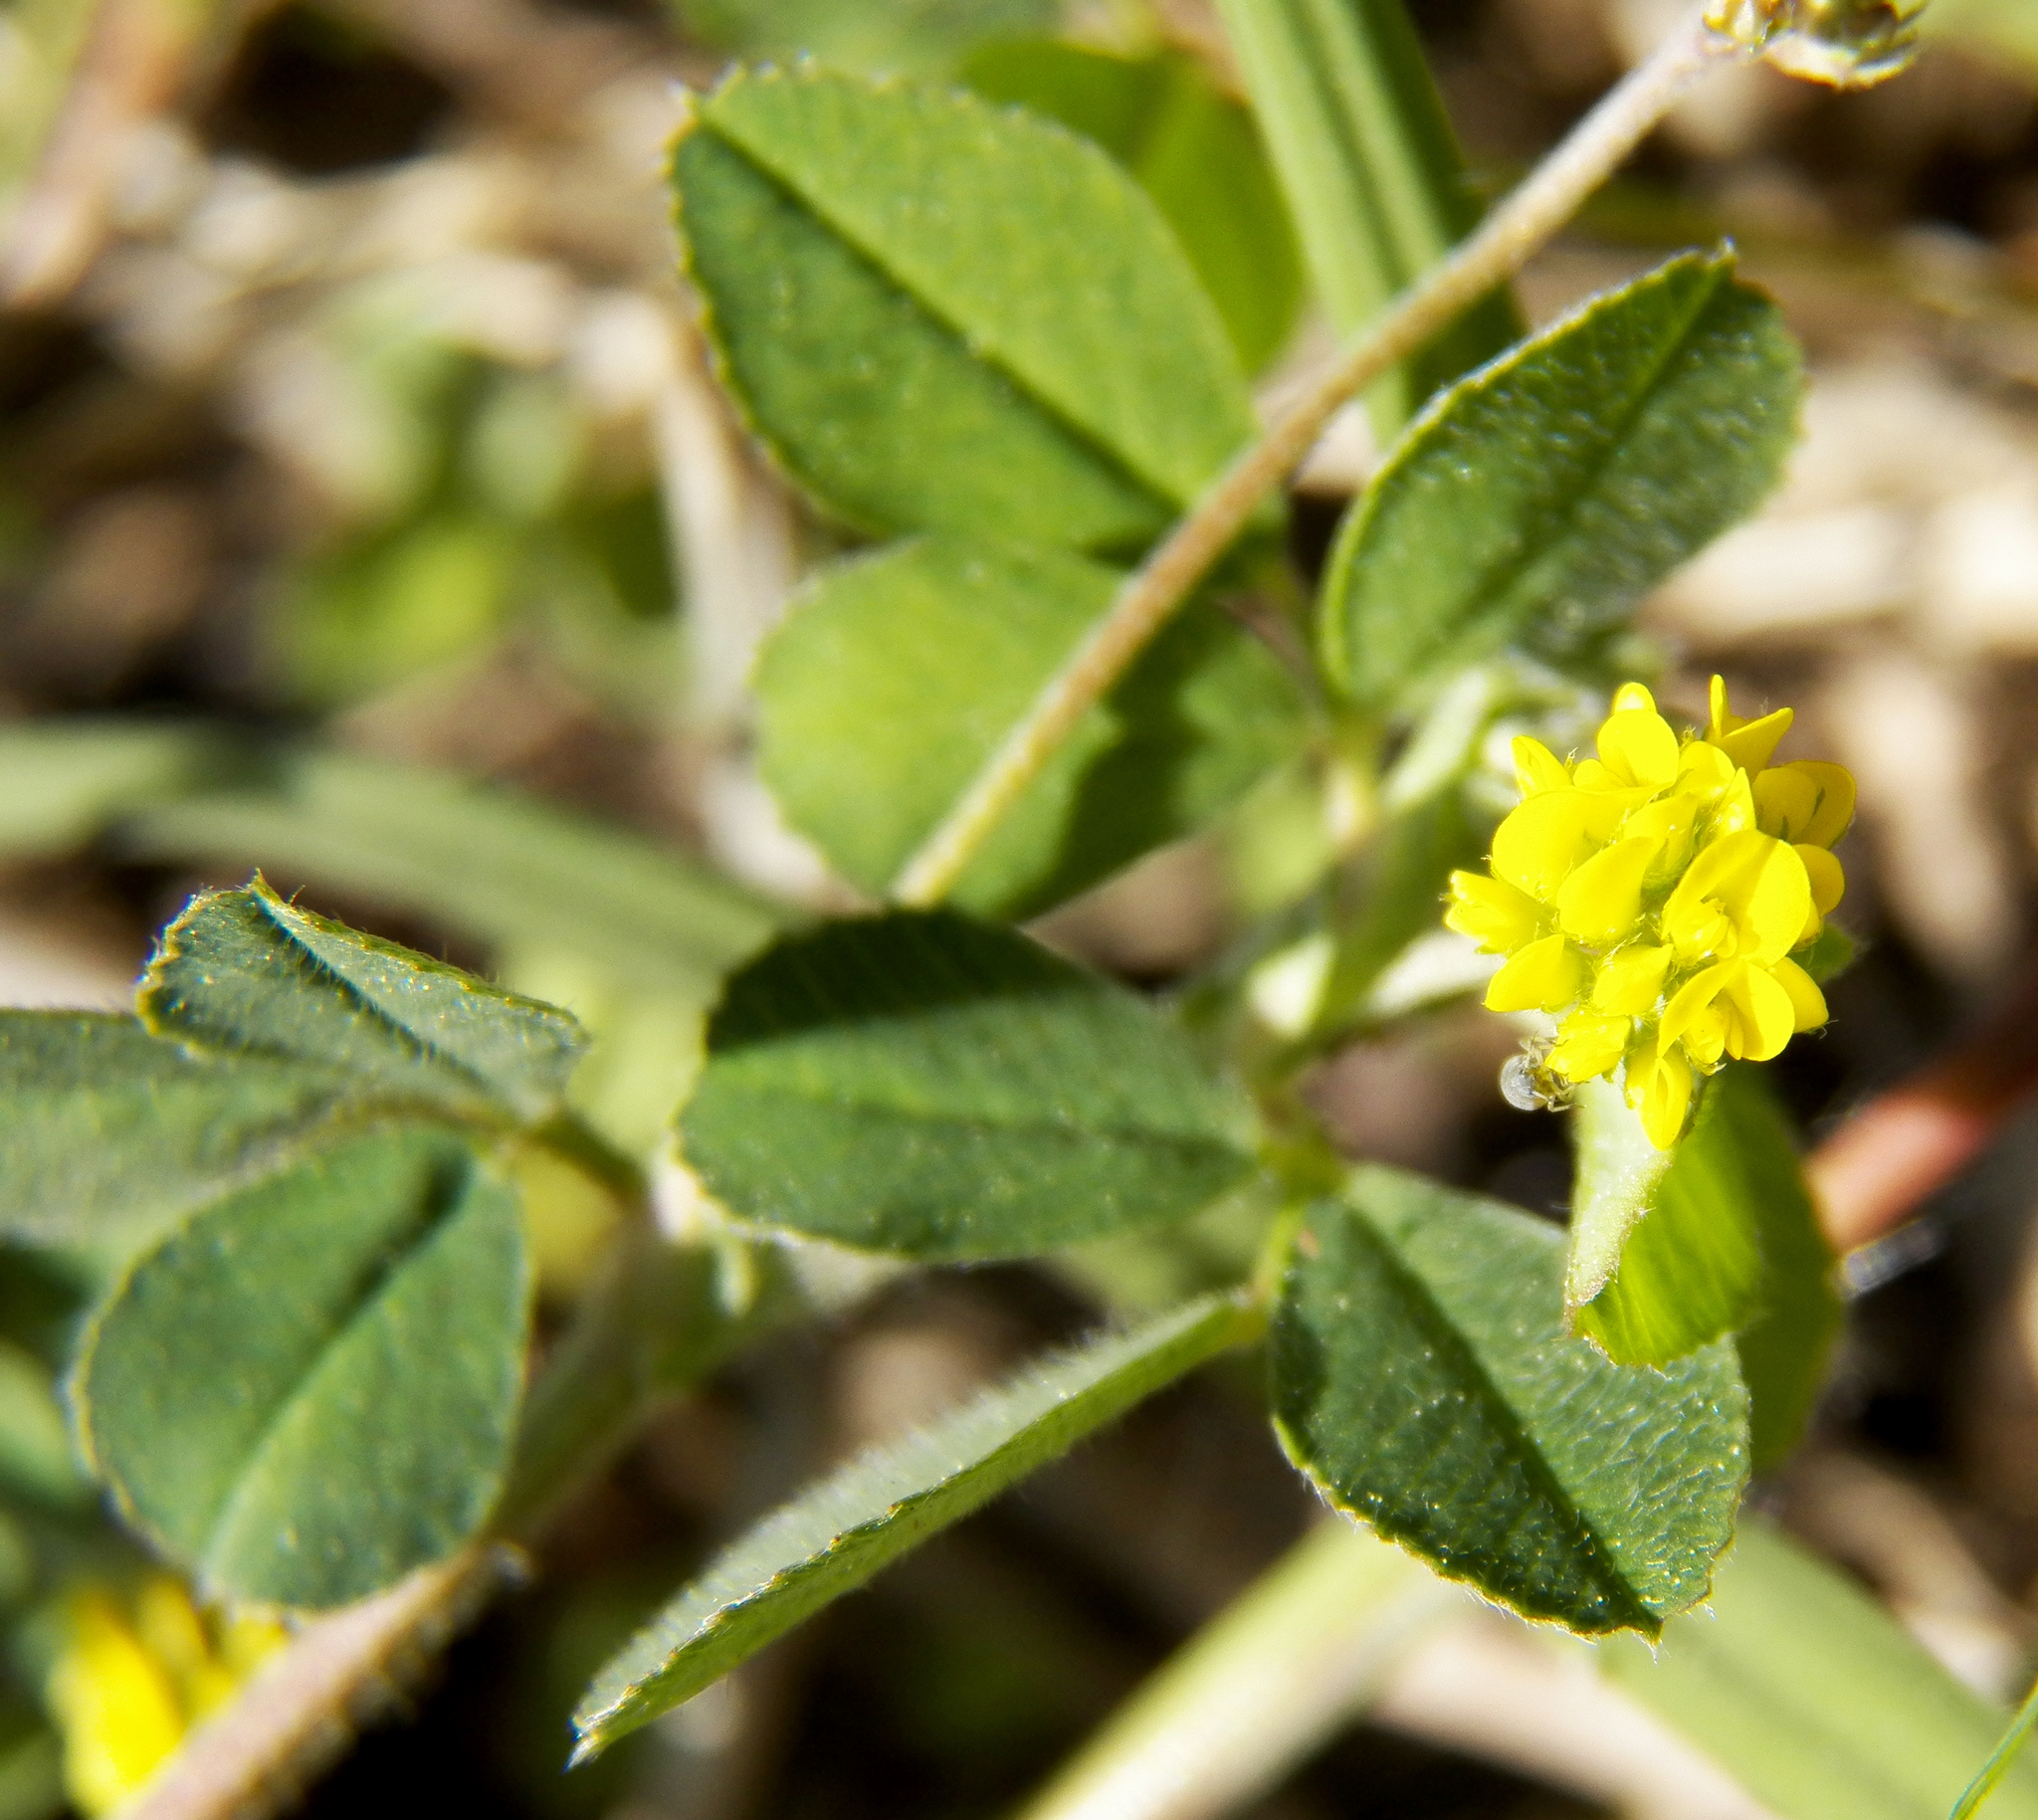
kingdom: Plantae
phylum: Tracheophyta
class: Magnoliopsida
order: Fabales
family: Fabaceae
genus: Medicago
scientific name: Medicago lupulina
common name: Black medick
